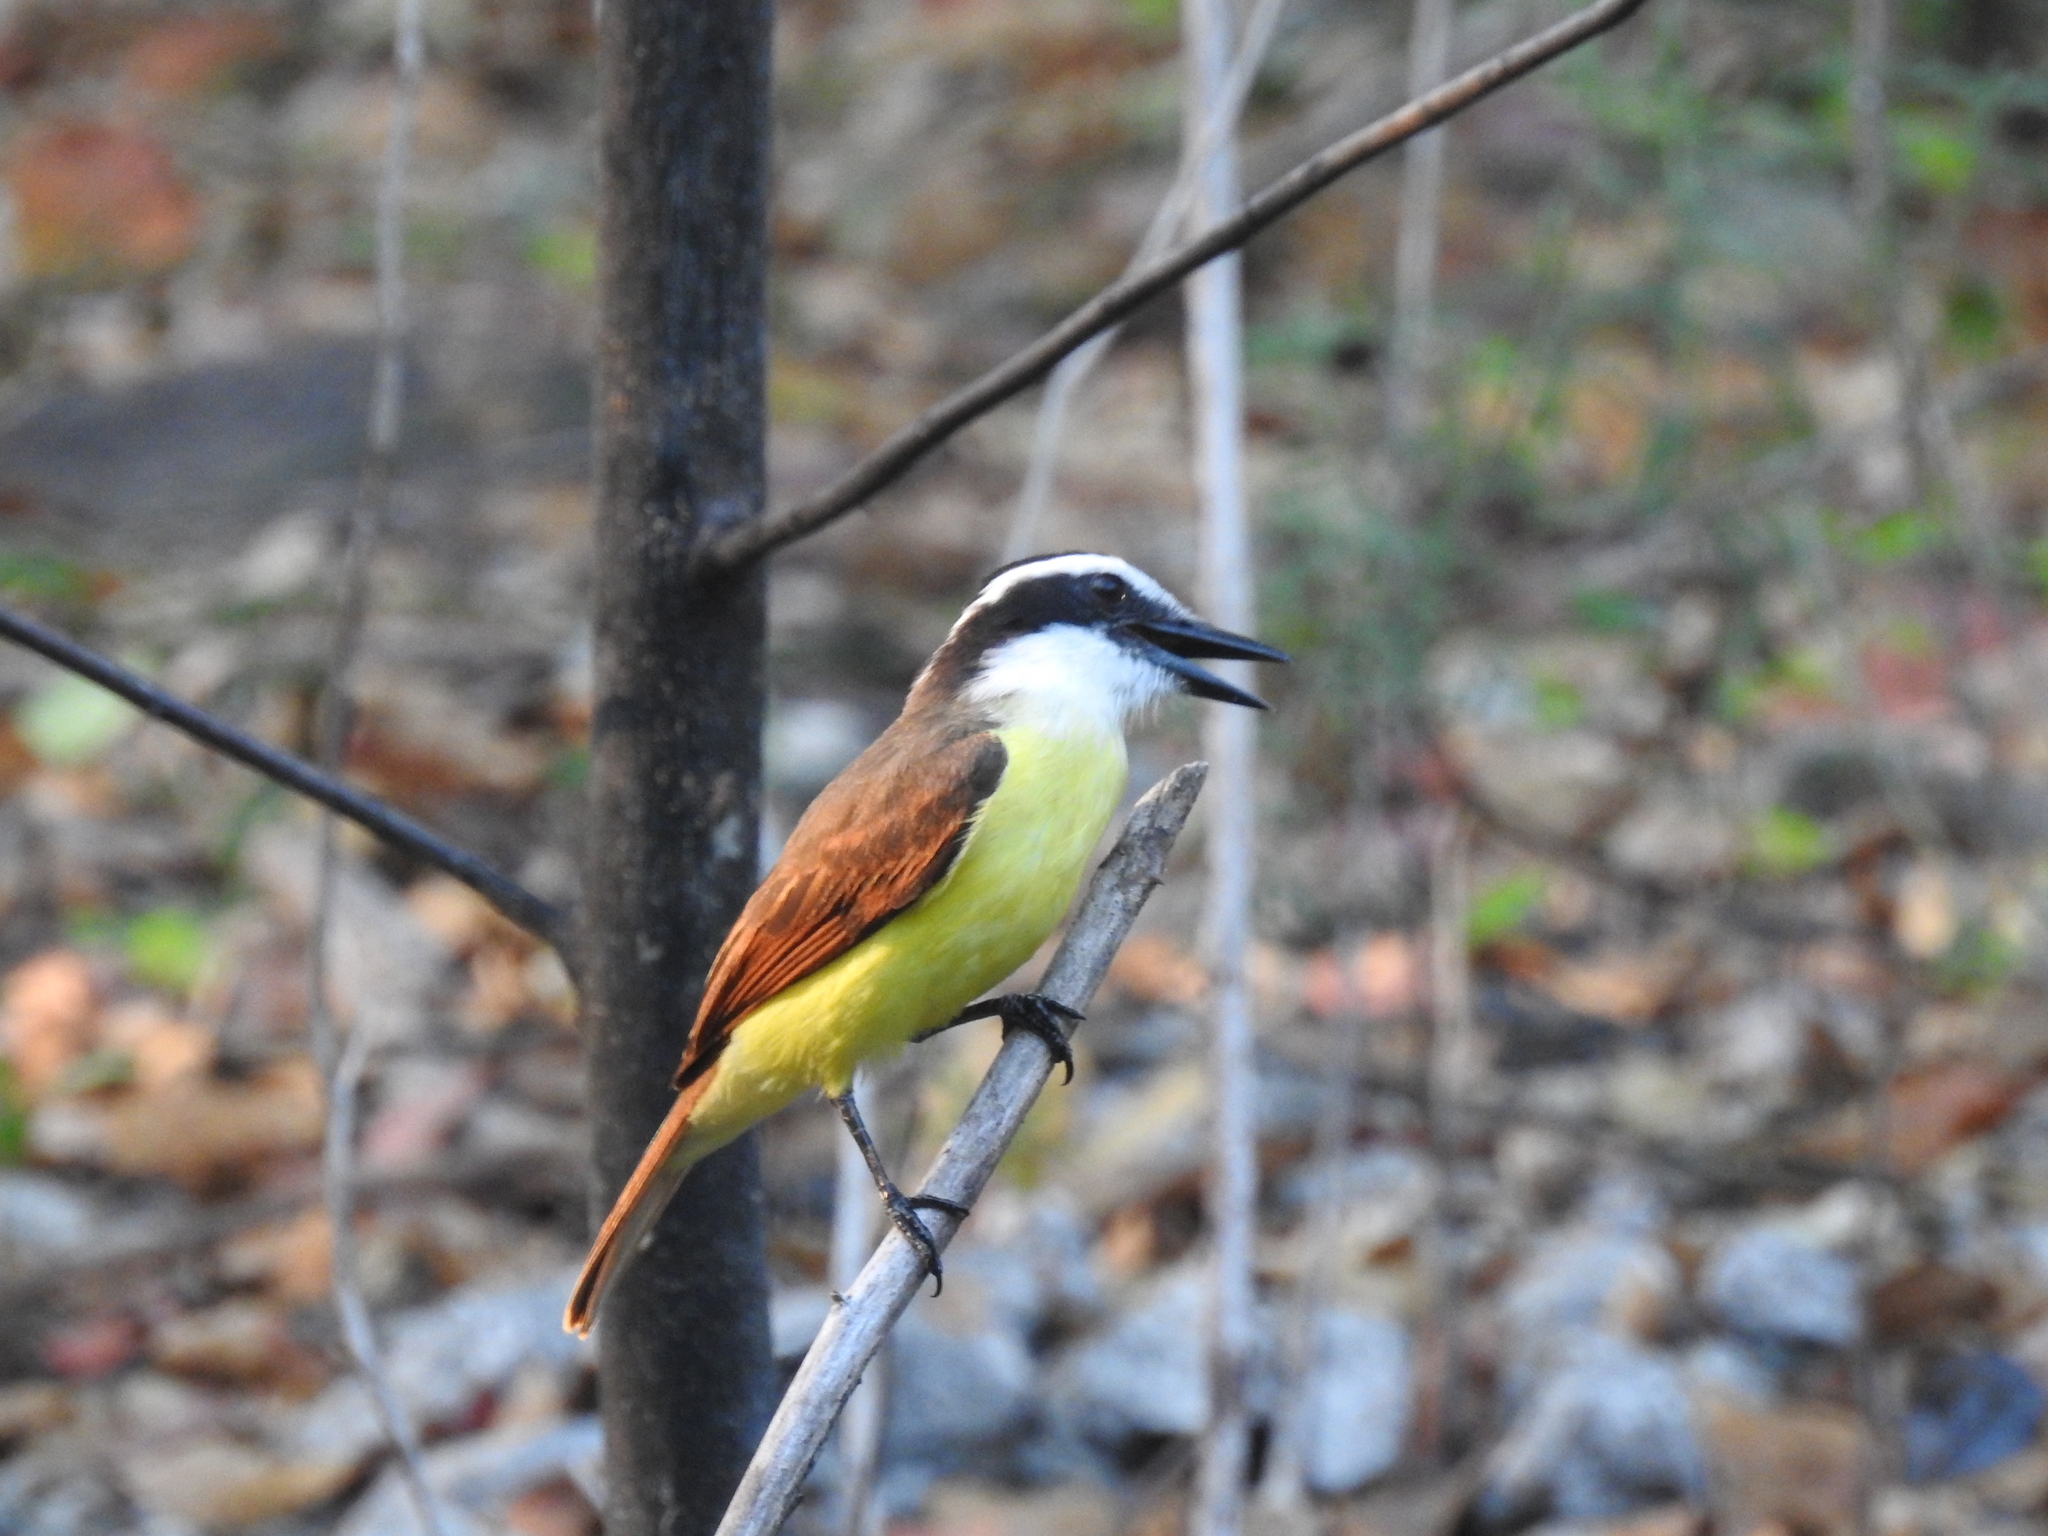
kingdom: Animalia
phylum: Chordata
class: Aves
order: Passeriformes
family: Tyrannidae
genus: Pitangus
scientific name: Pitangus sulphuratus
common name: Great kiskadee
